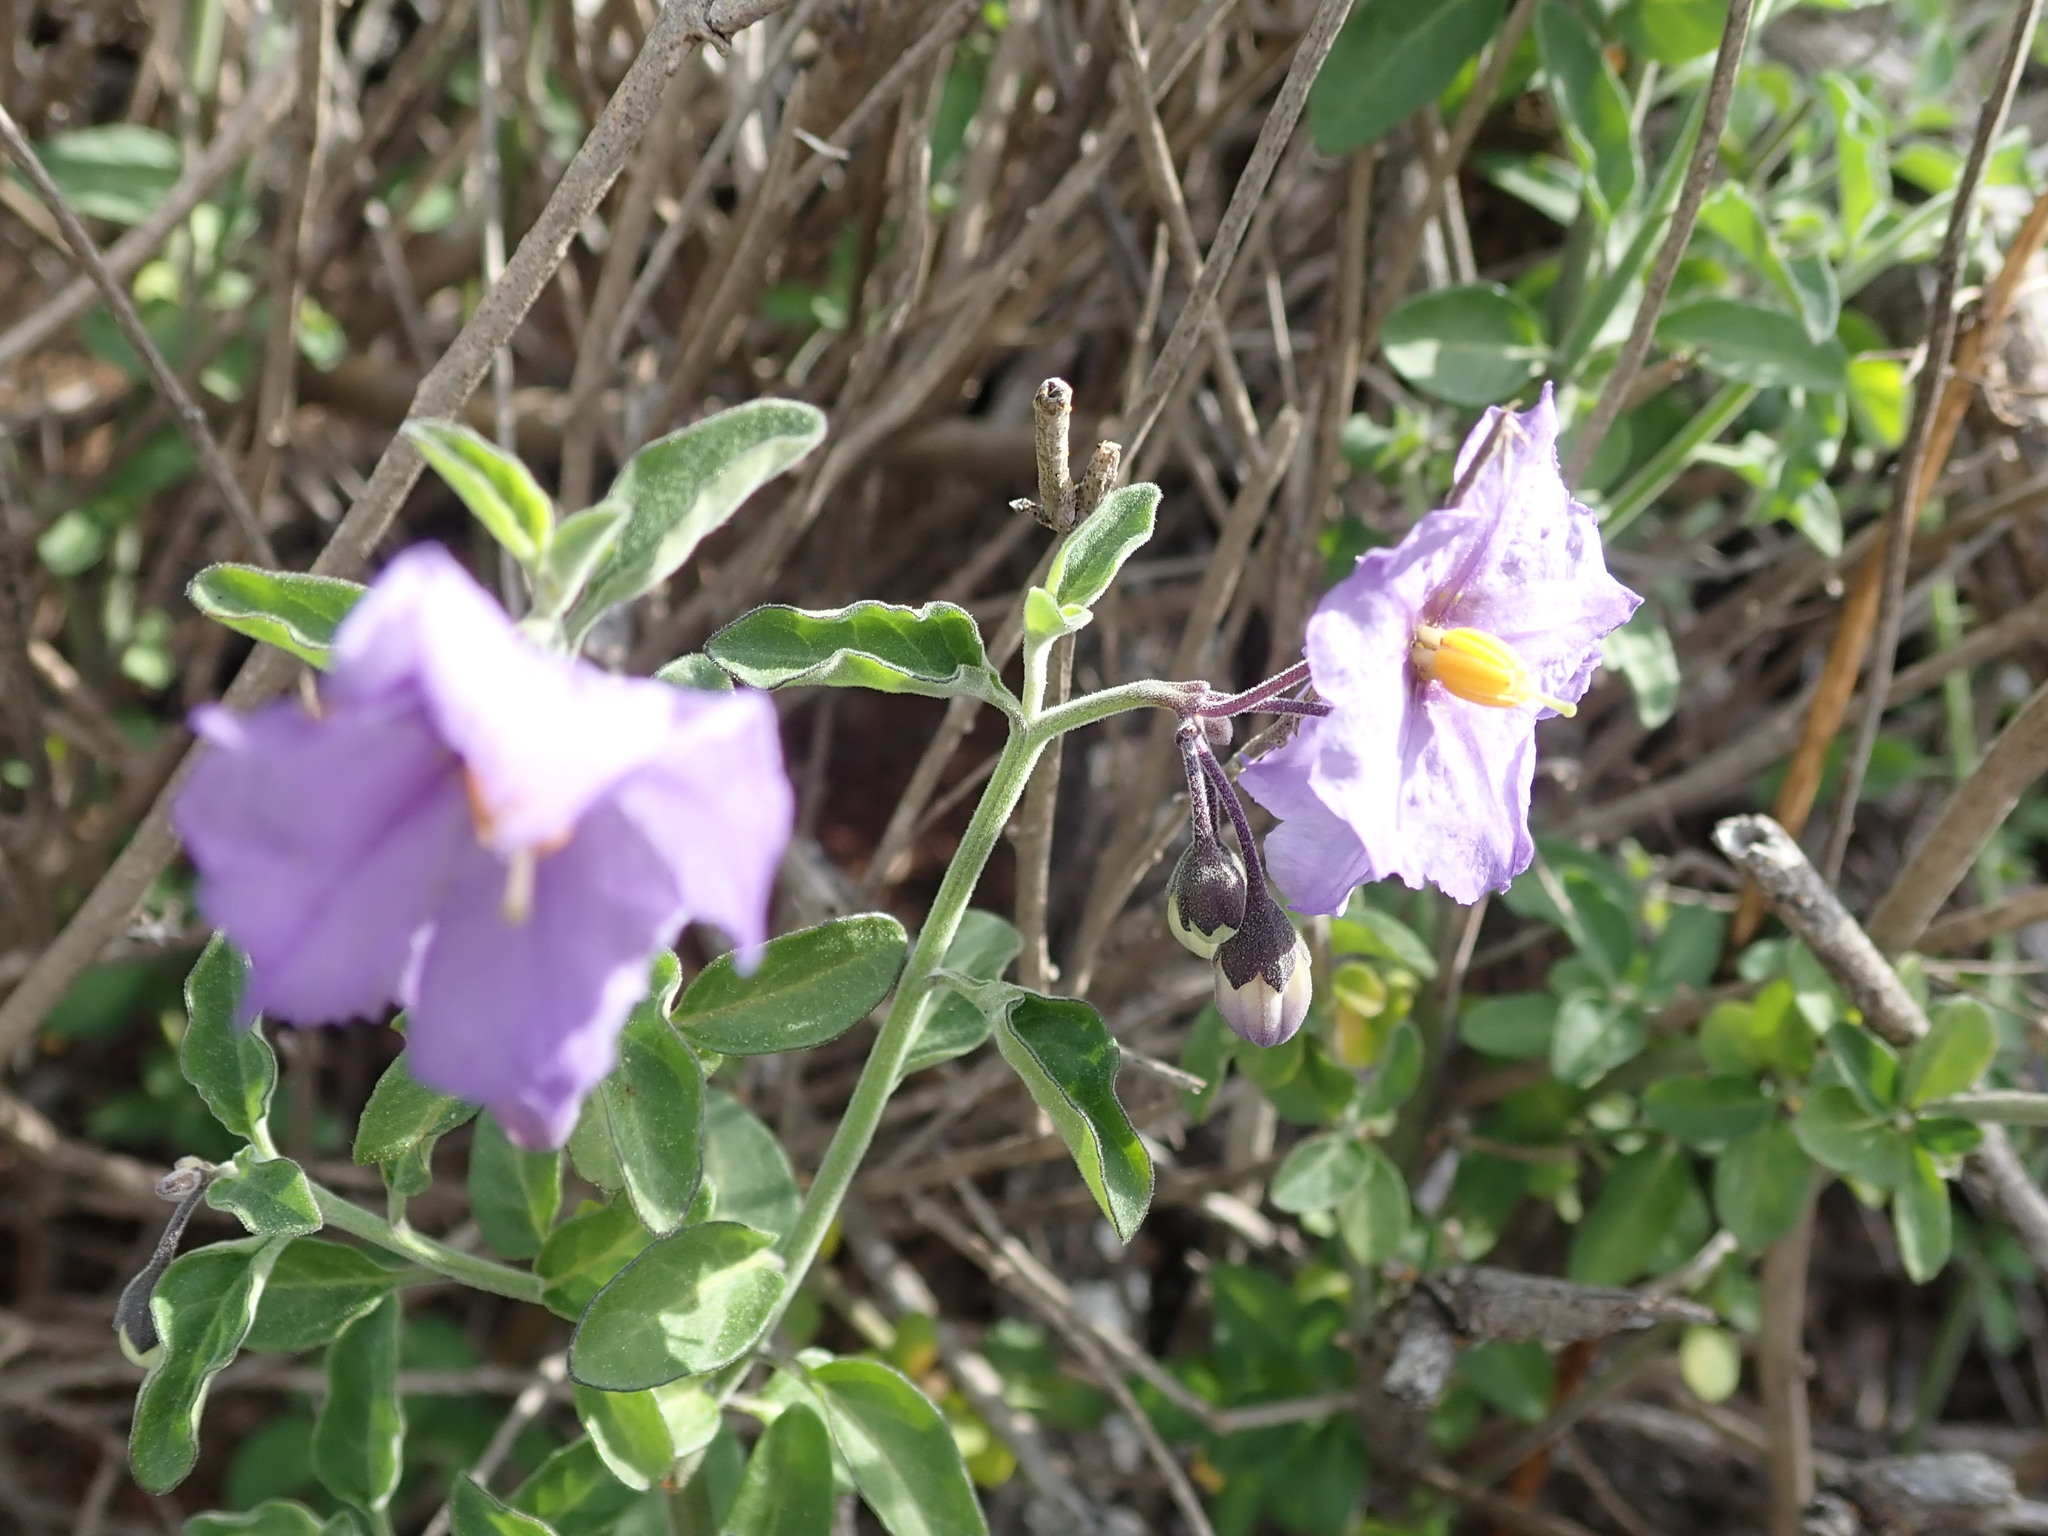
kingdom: Plantae
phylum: Tracheophyta
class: Magnoliopsida
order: Solanales
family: Solanaceae
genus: Solanum
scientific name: Solanum umbelliferum
